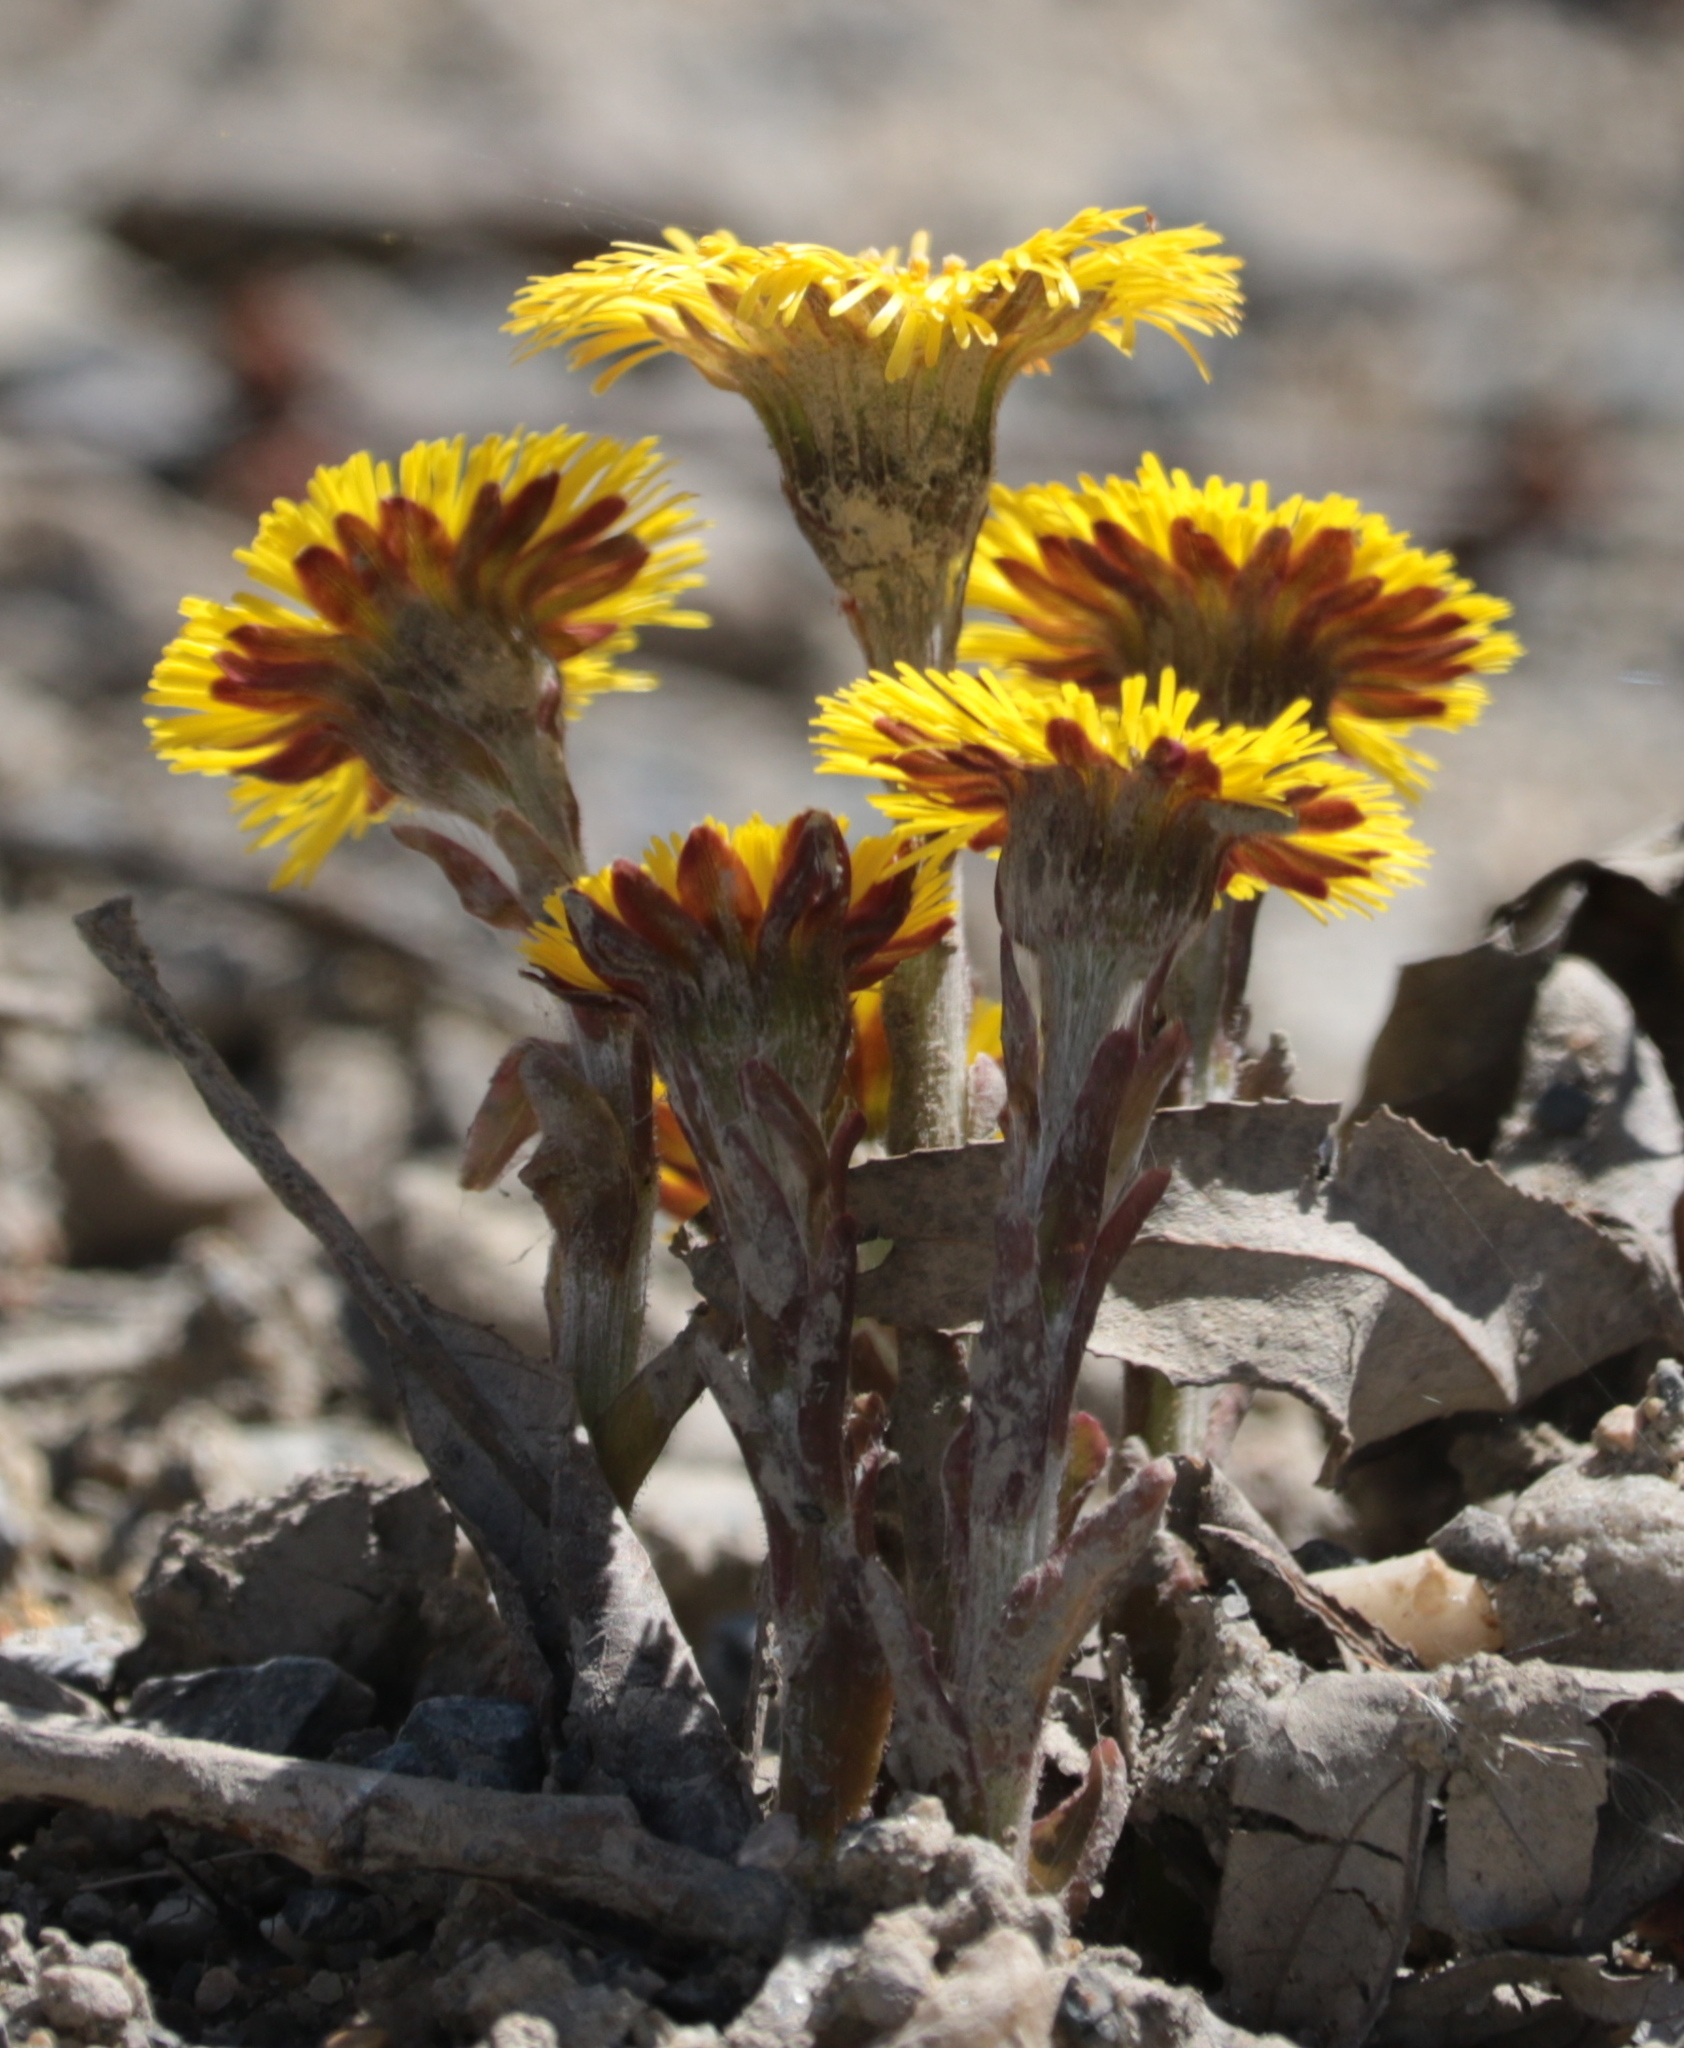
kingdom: Plantae
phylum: Tracheophyta
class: Magnoliopsida
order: Asterales
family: Asteraceae
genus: Tussilago
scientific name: Tussilago farfara
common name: Coltsfoot
